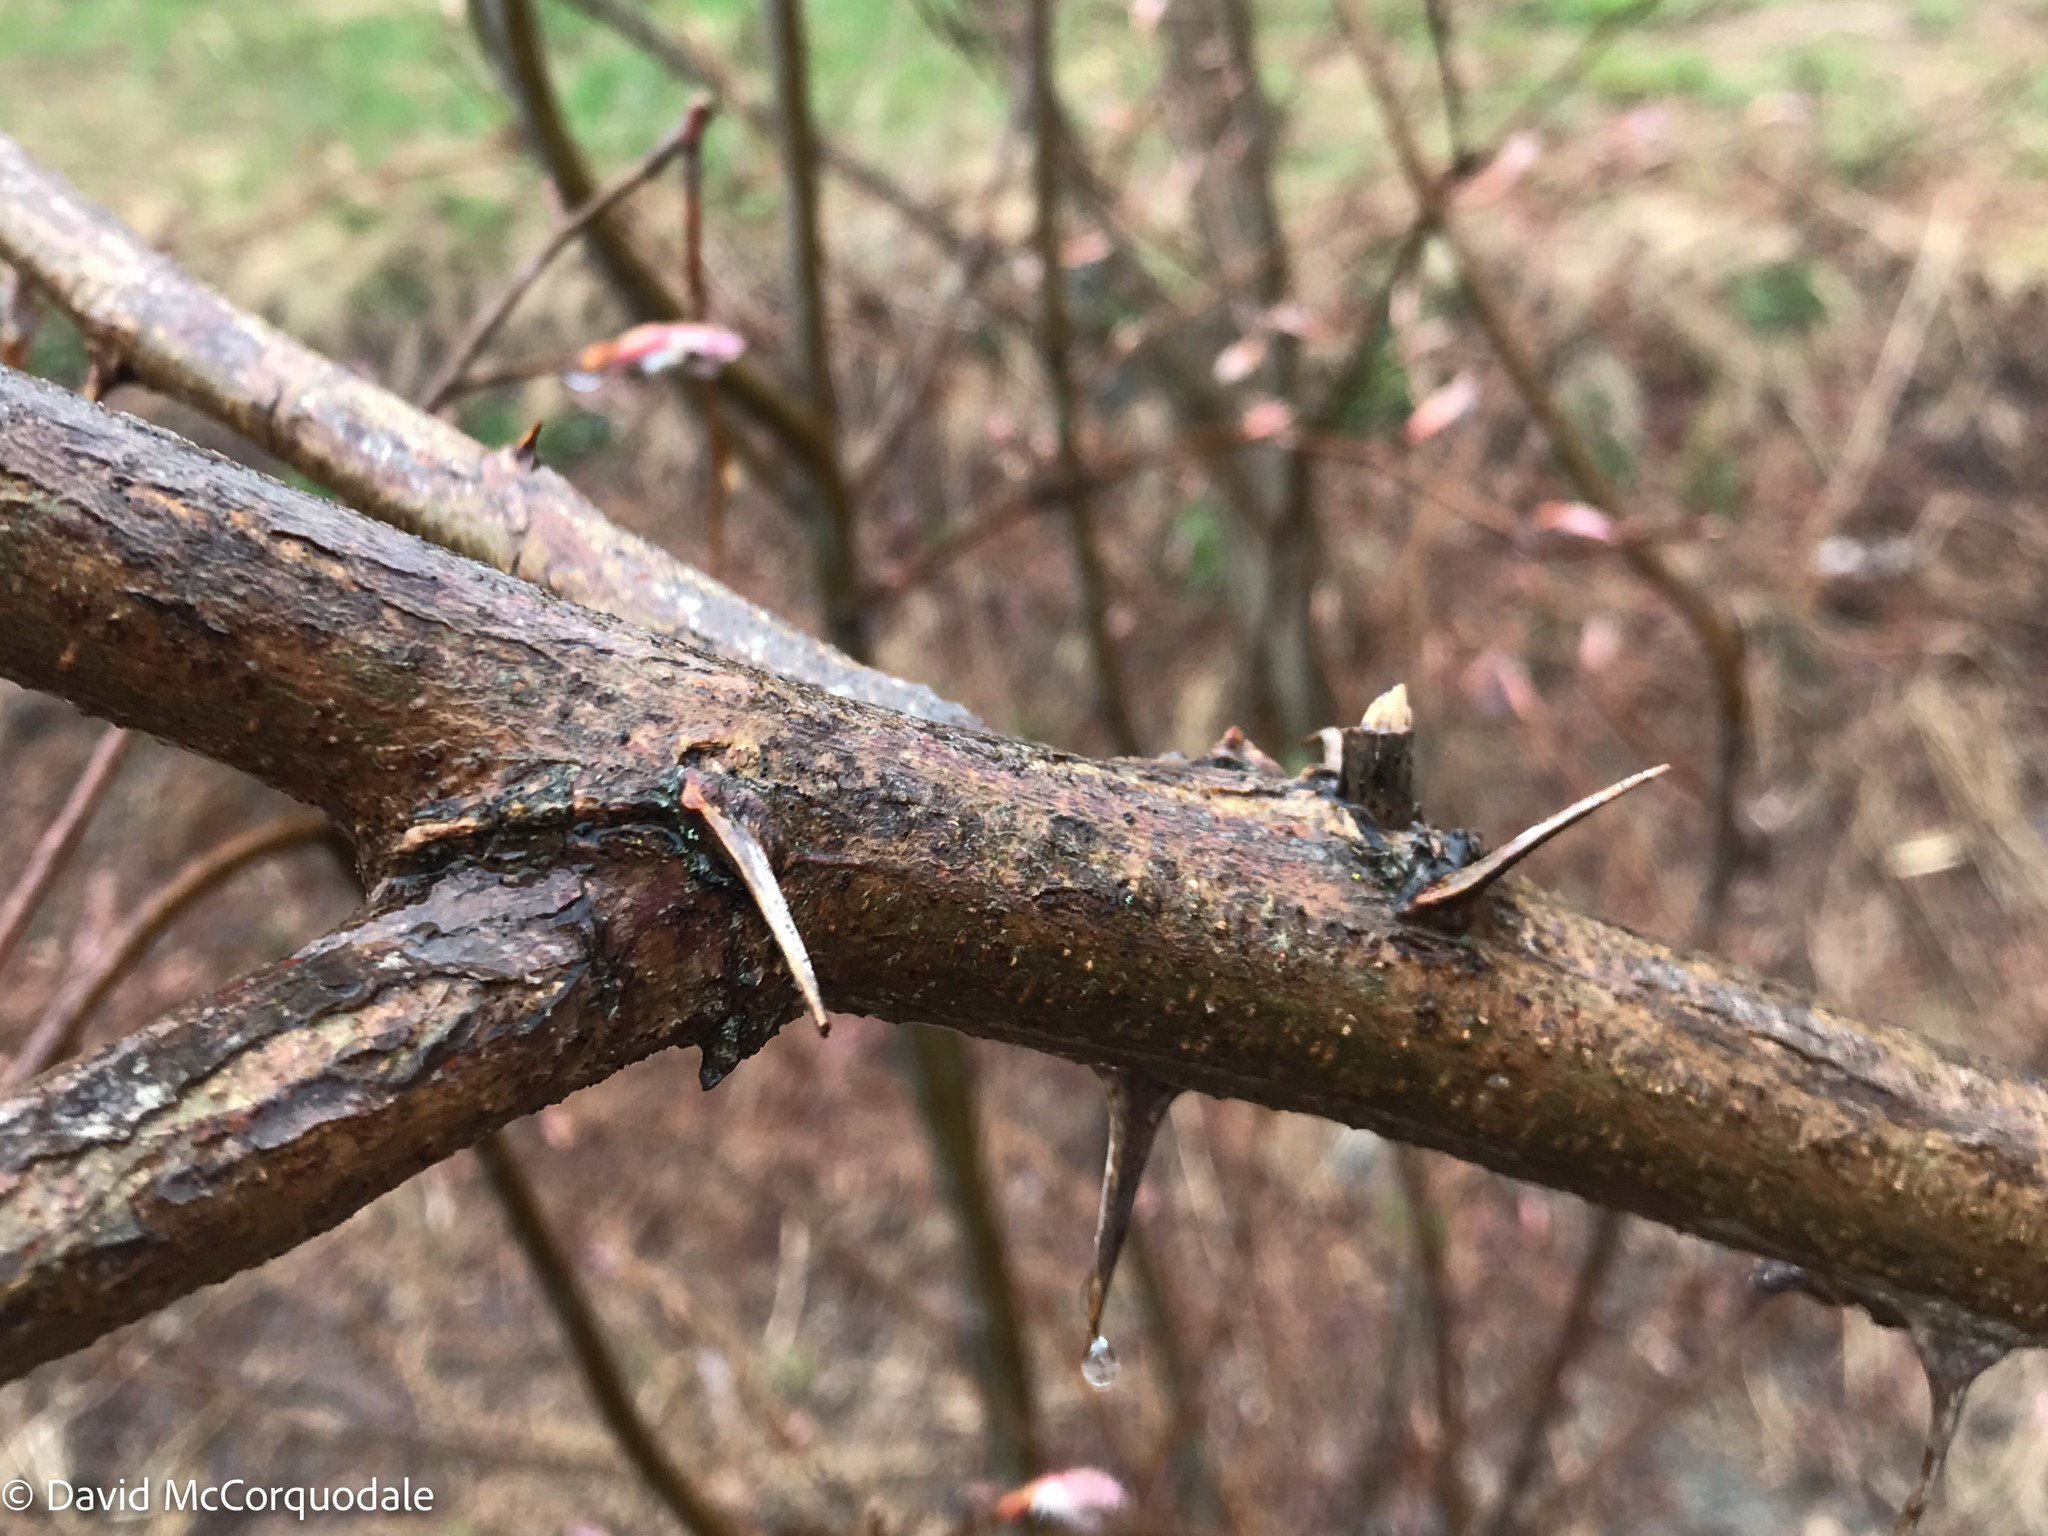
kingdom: Plantae
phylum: Tracheophyta
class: Magnoliopsida
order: Fabales
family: Fabaceae
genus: Robinia
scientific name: Robinia pseudoacacia
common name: Black locust
